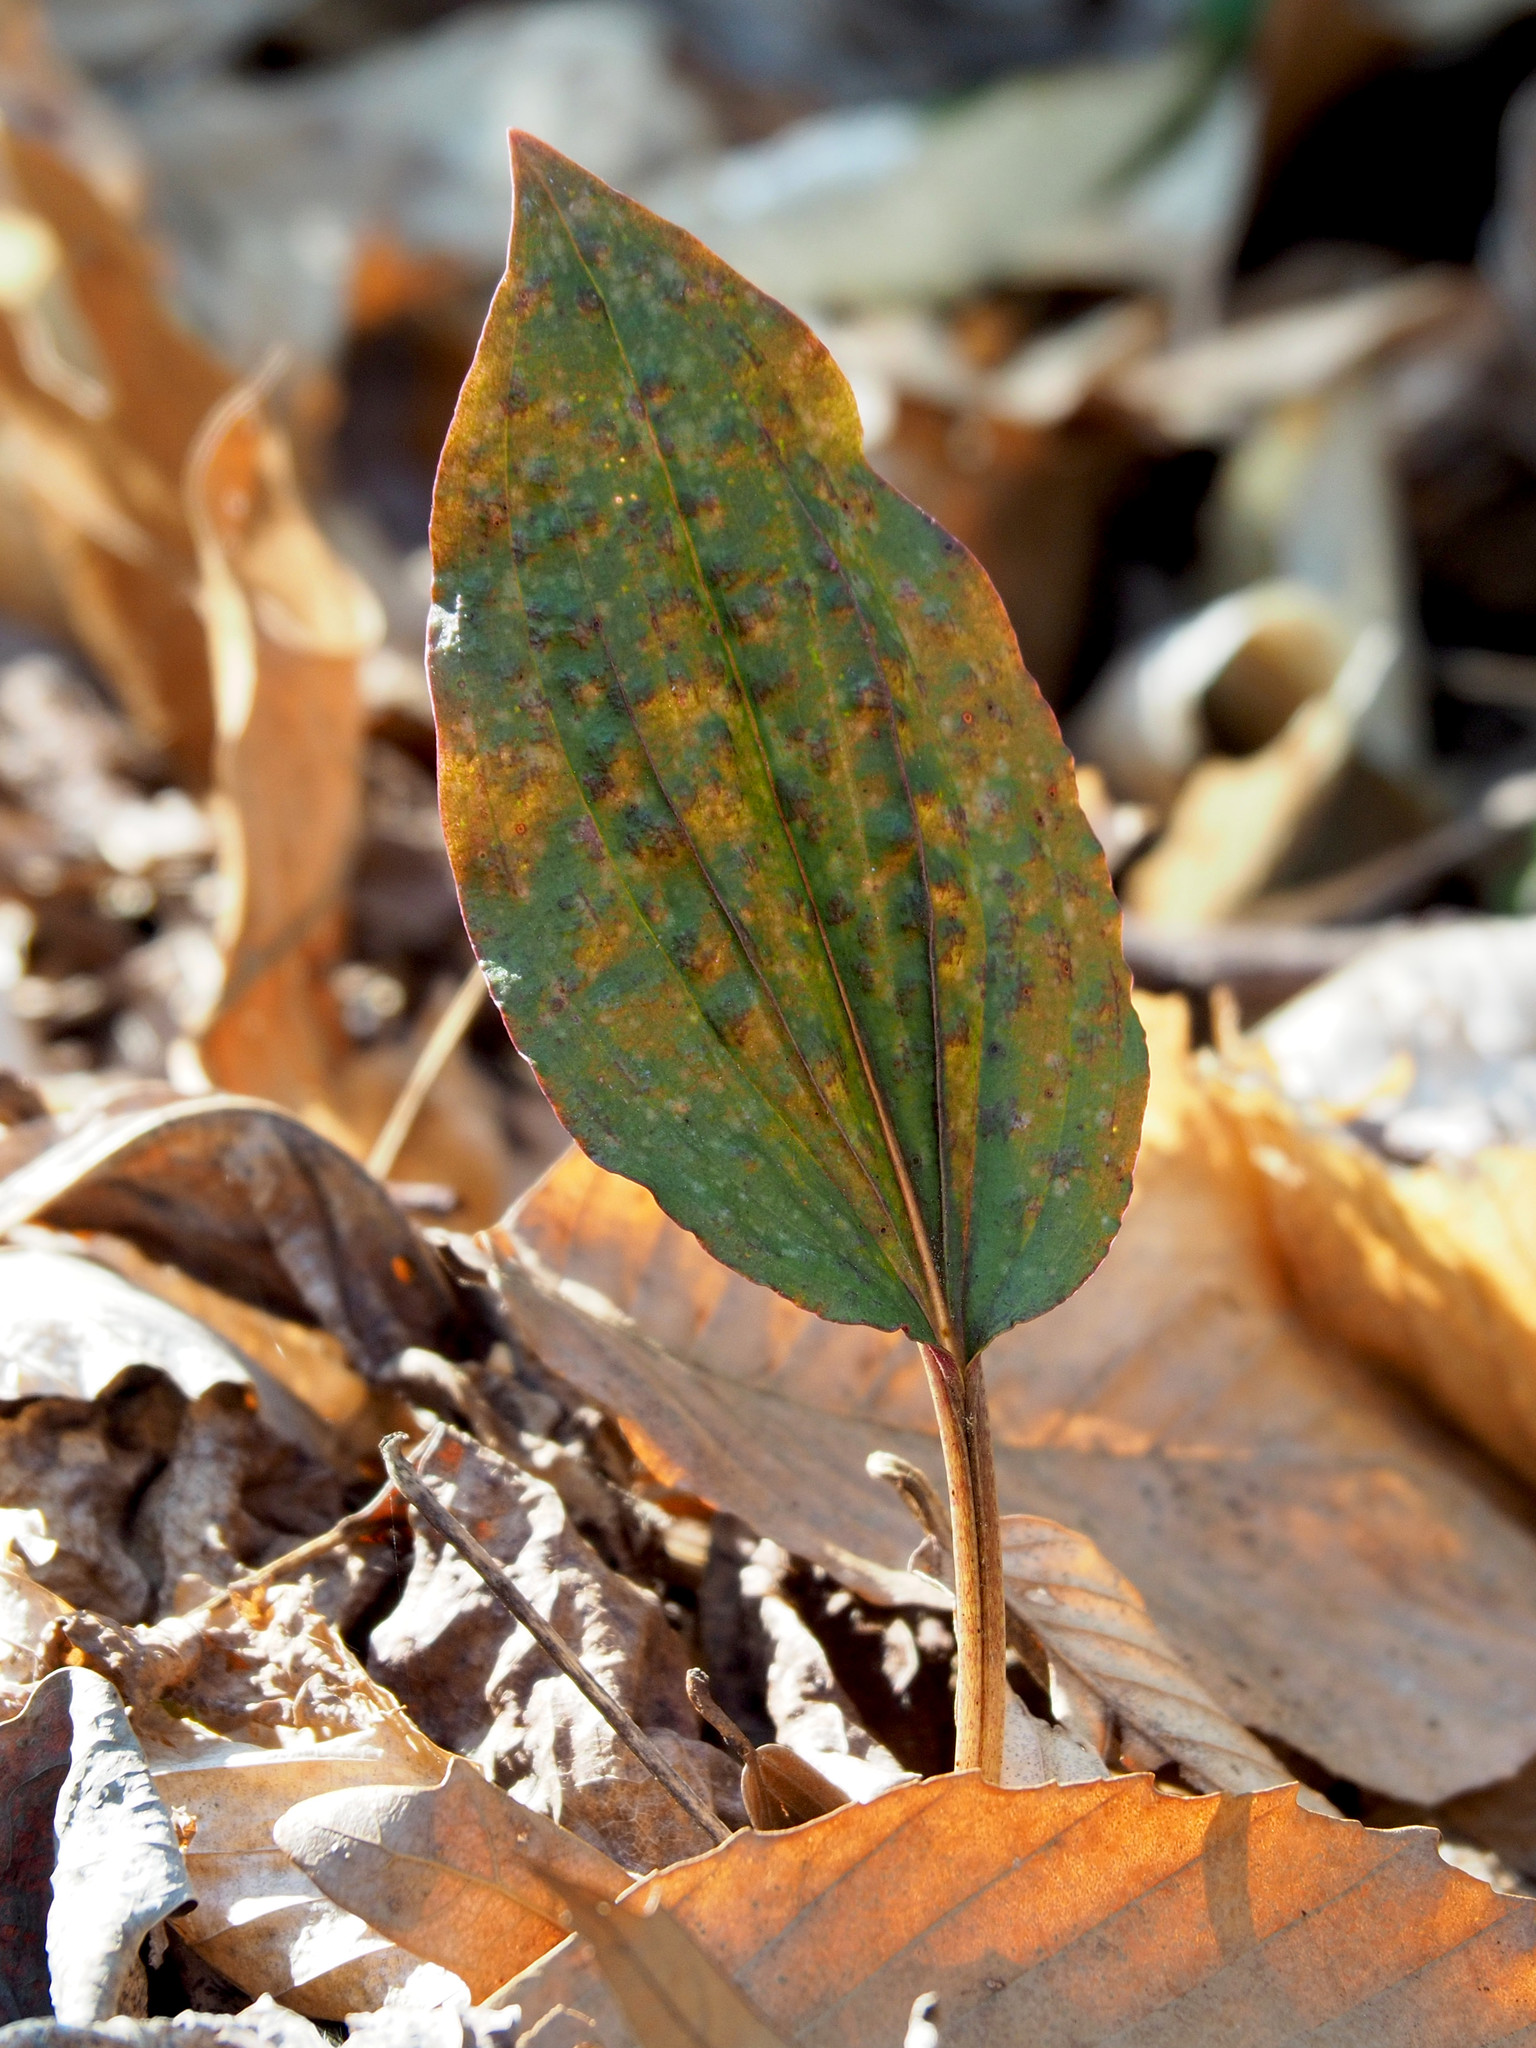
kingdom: Plantae
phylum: Tracheophyta
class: Liliopsida
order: Asparagales
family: Orchidaceae
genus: Tipularia
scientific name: Tipularia discolor
